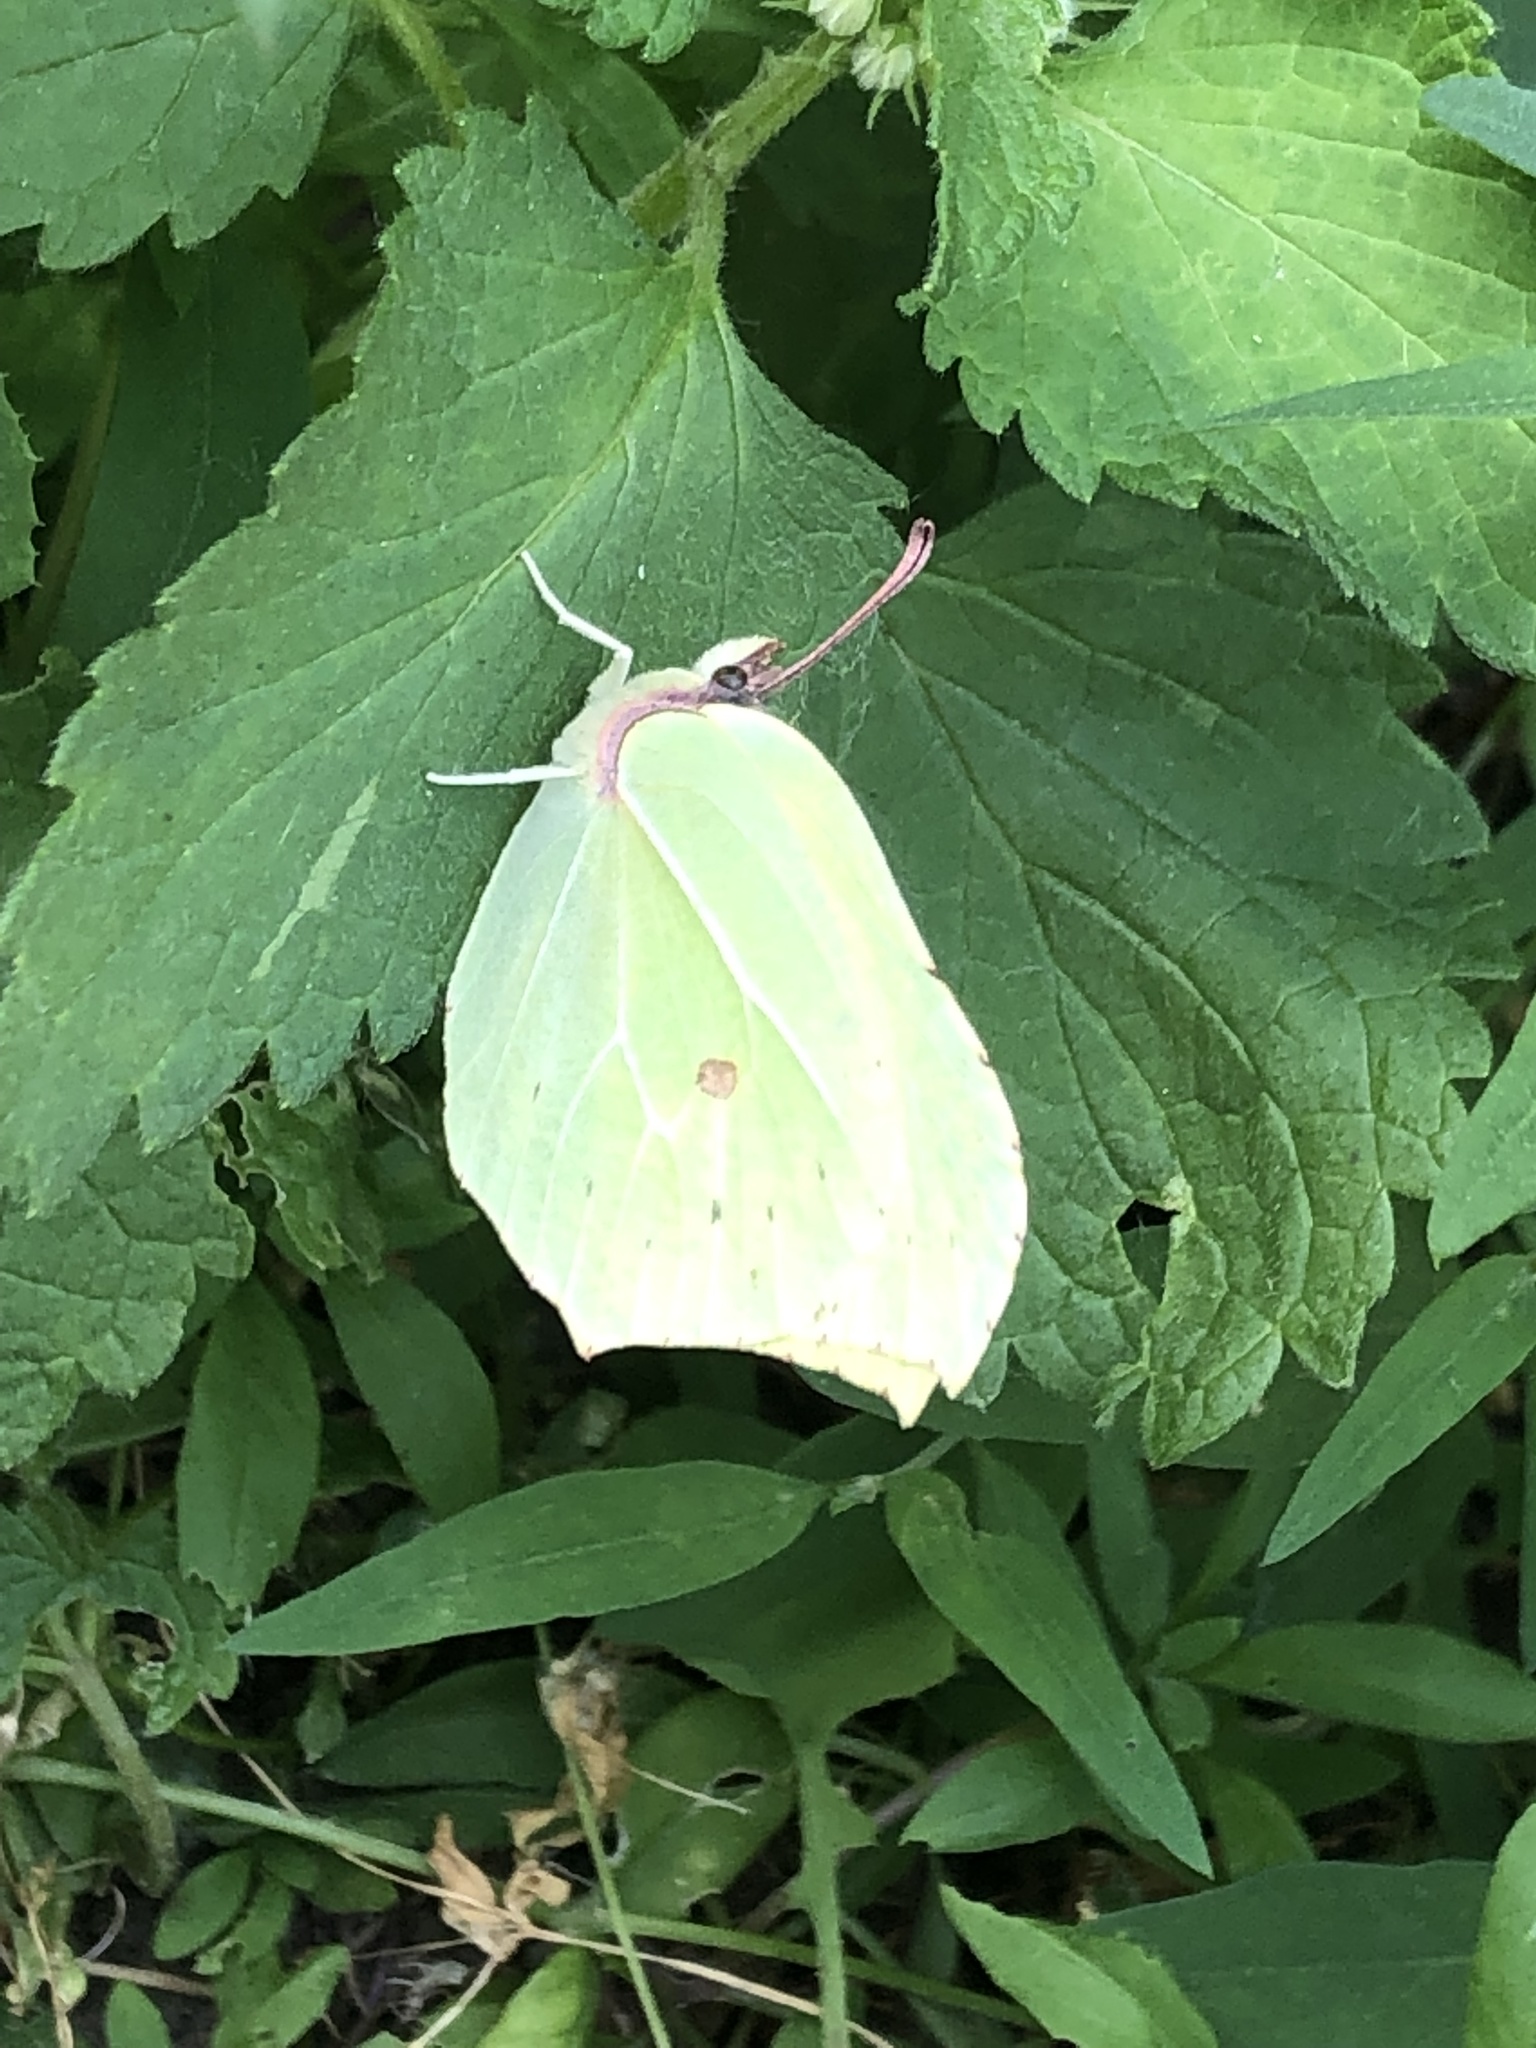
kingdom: Animalia
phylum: Arthropoda
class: Insecta
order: Lepidoptera
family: Pieridae
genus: Gonepteryx
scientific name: Gonepteryx rhamni
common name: Brimstone
